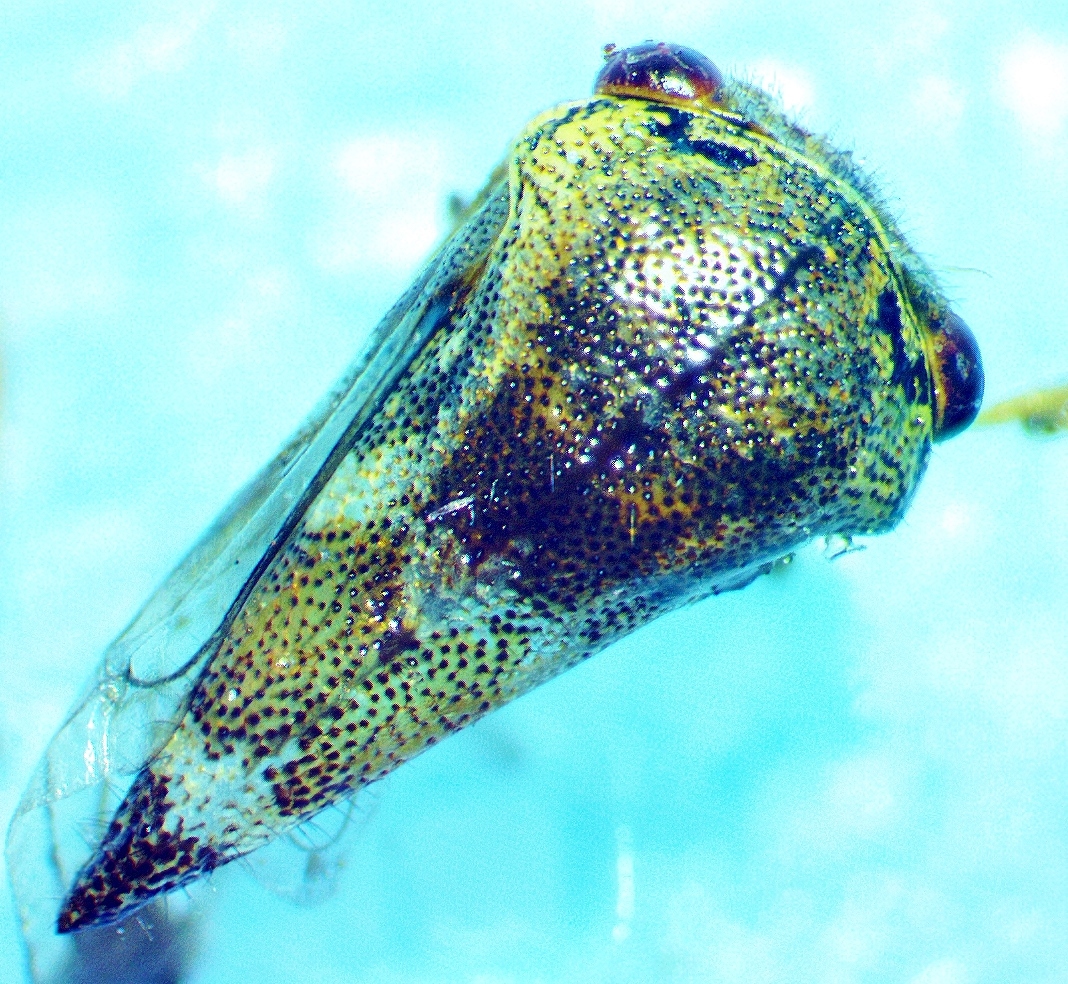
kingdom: Animalia
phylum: Arthropoda
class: Insecta
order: Hemiptera
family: Membracidae
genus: Ophiderma
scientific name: Ophiderma definita
